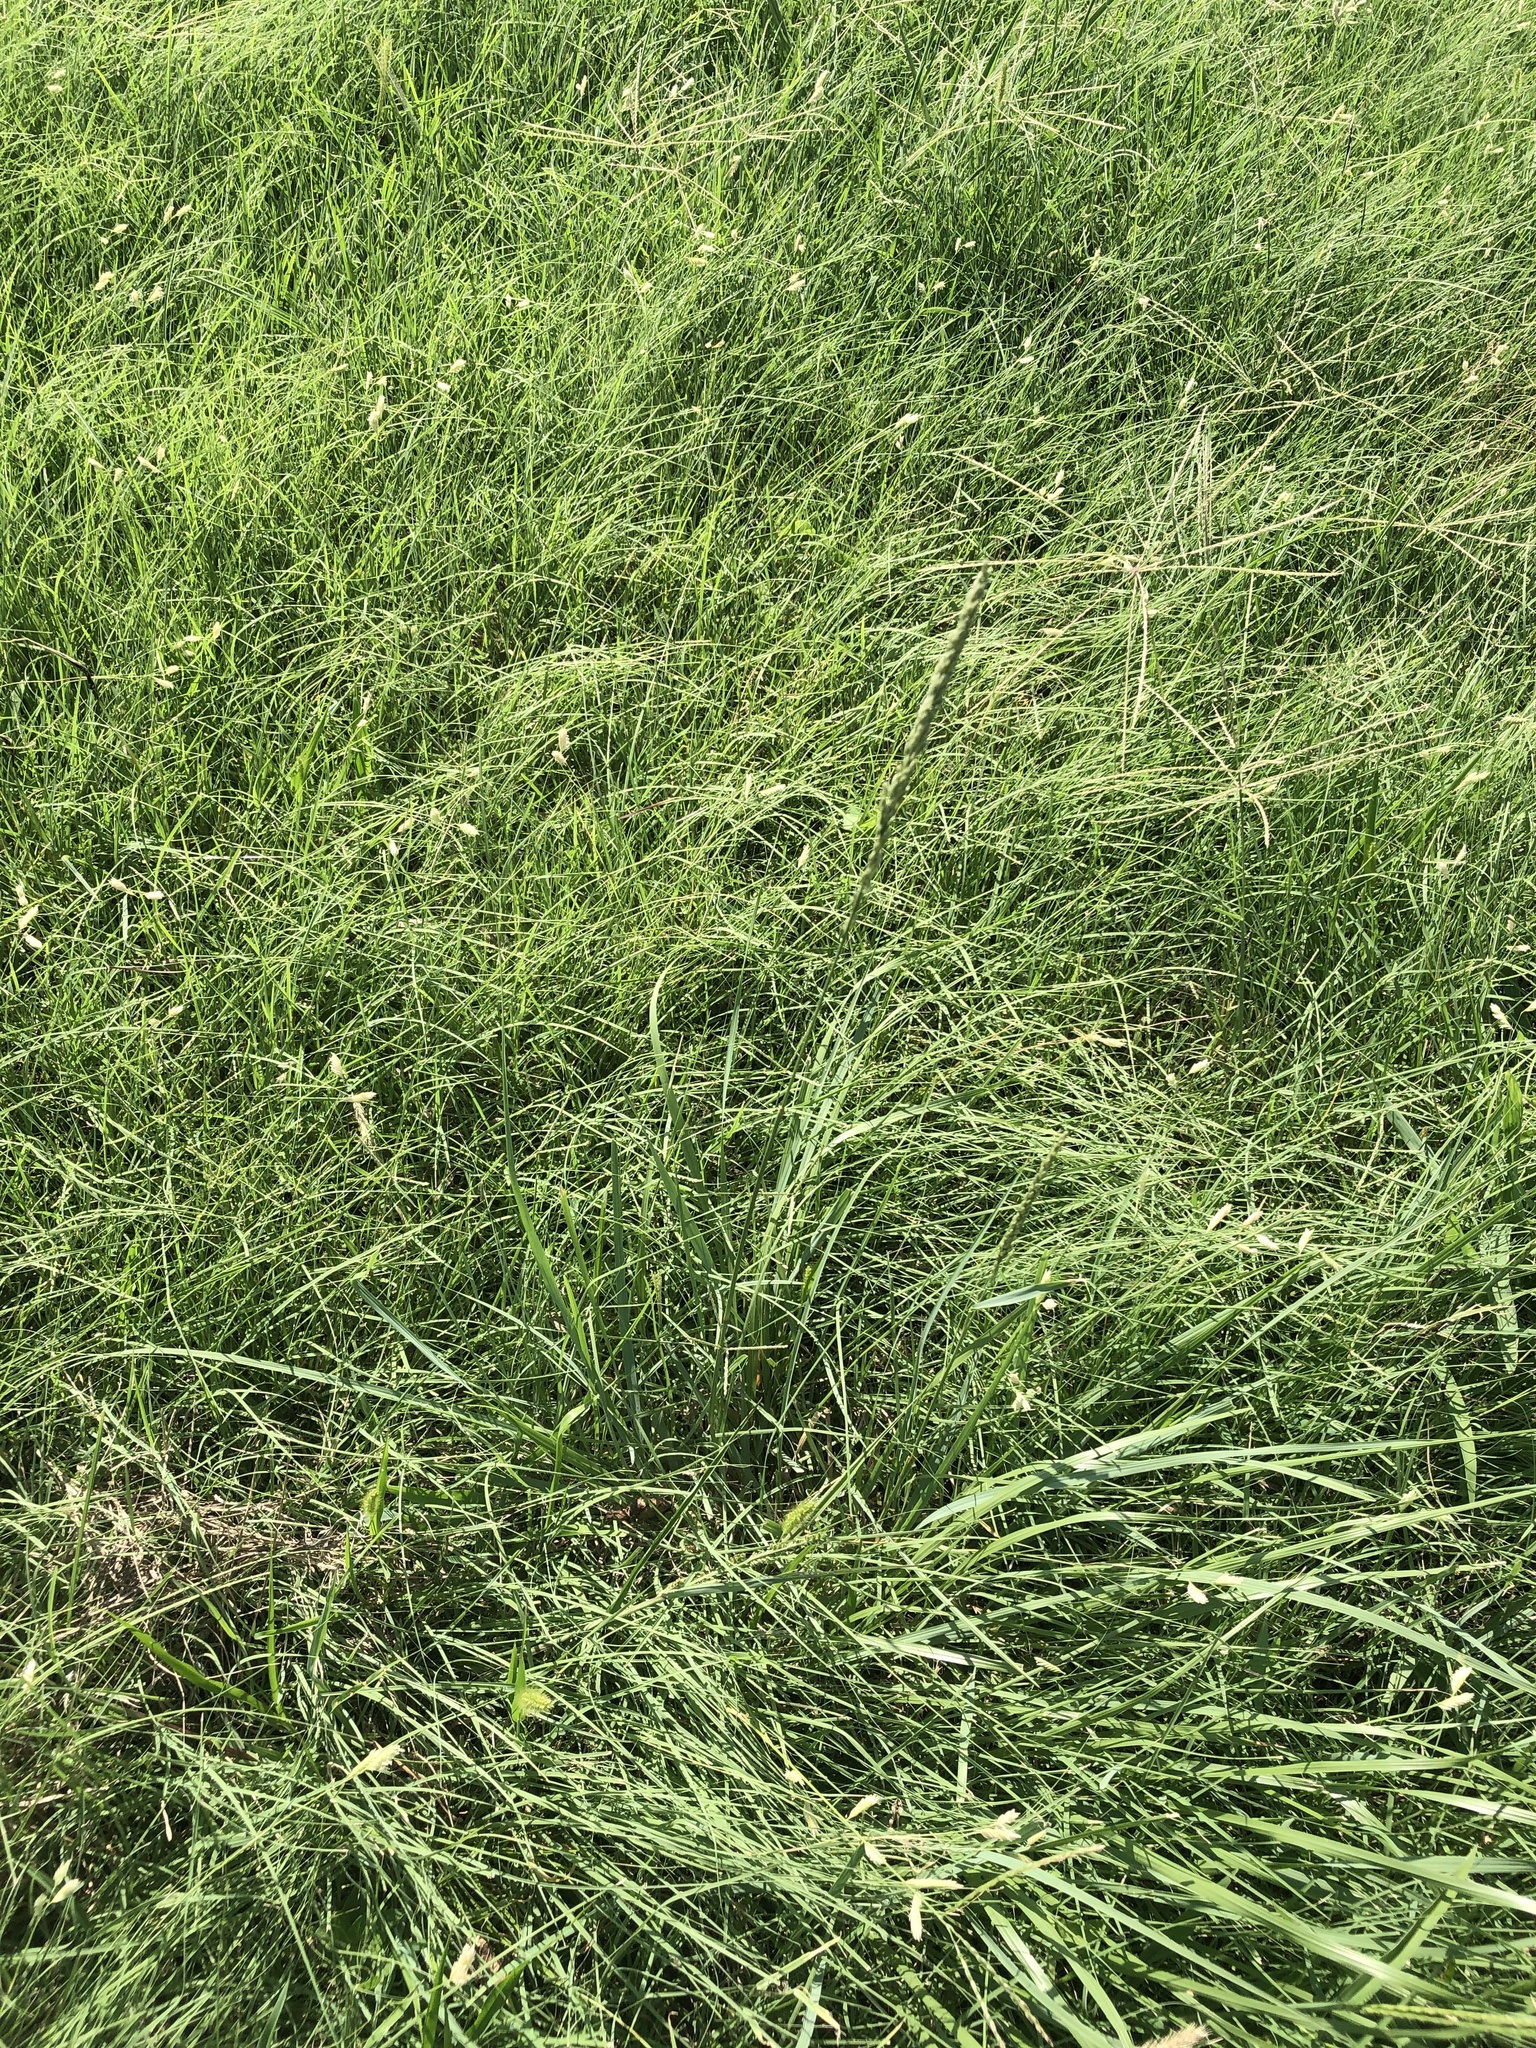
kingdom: Plantae
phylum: Tracheophyta
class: Liliopsida
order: Poales
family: Poaceae
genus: Tridens
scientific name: Tridens albescens
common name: White tridens
